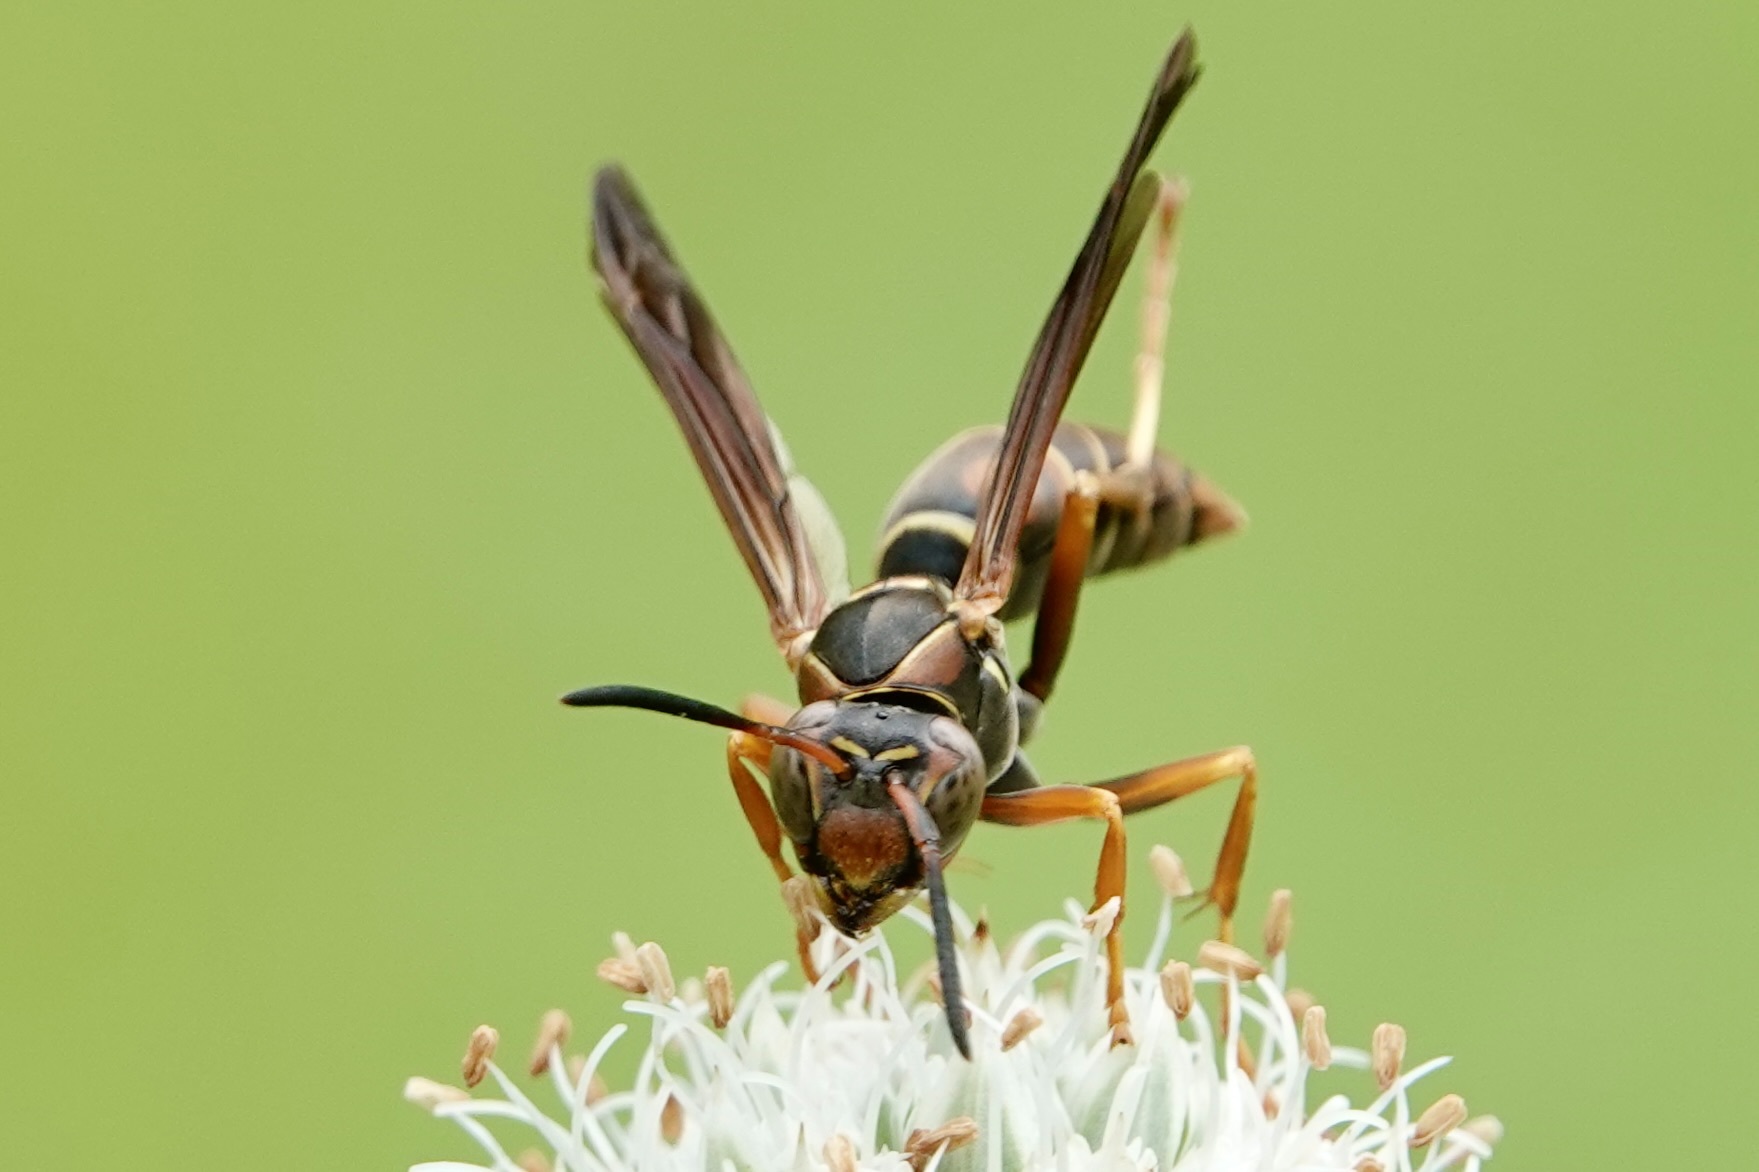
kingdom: Animalia
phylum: Arthropoda
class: Insecta
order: Hymenoptera
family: Eumenidae
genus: Polistes
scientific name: Polistes fuscatus
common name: Dark paper wasp
